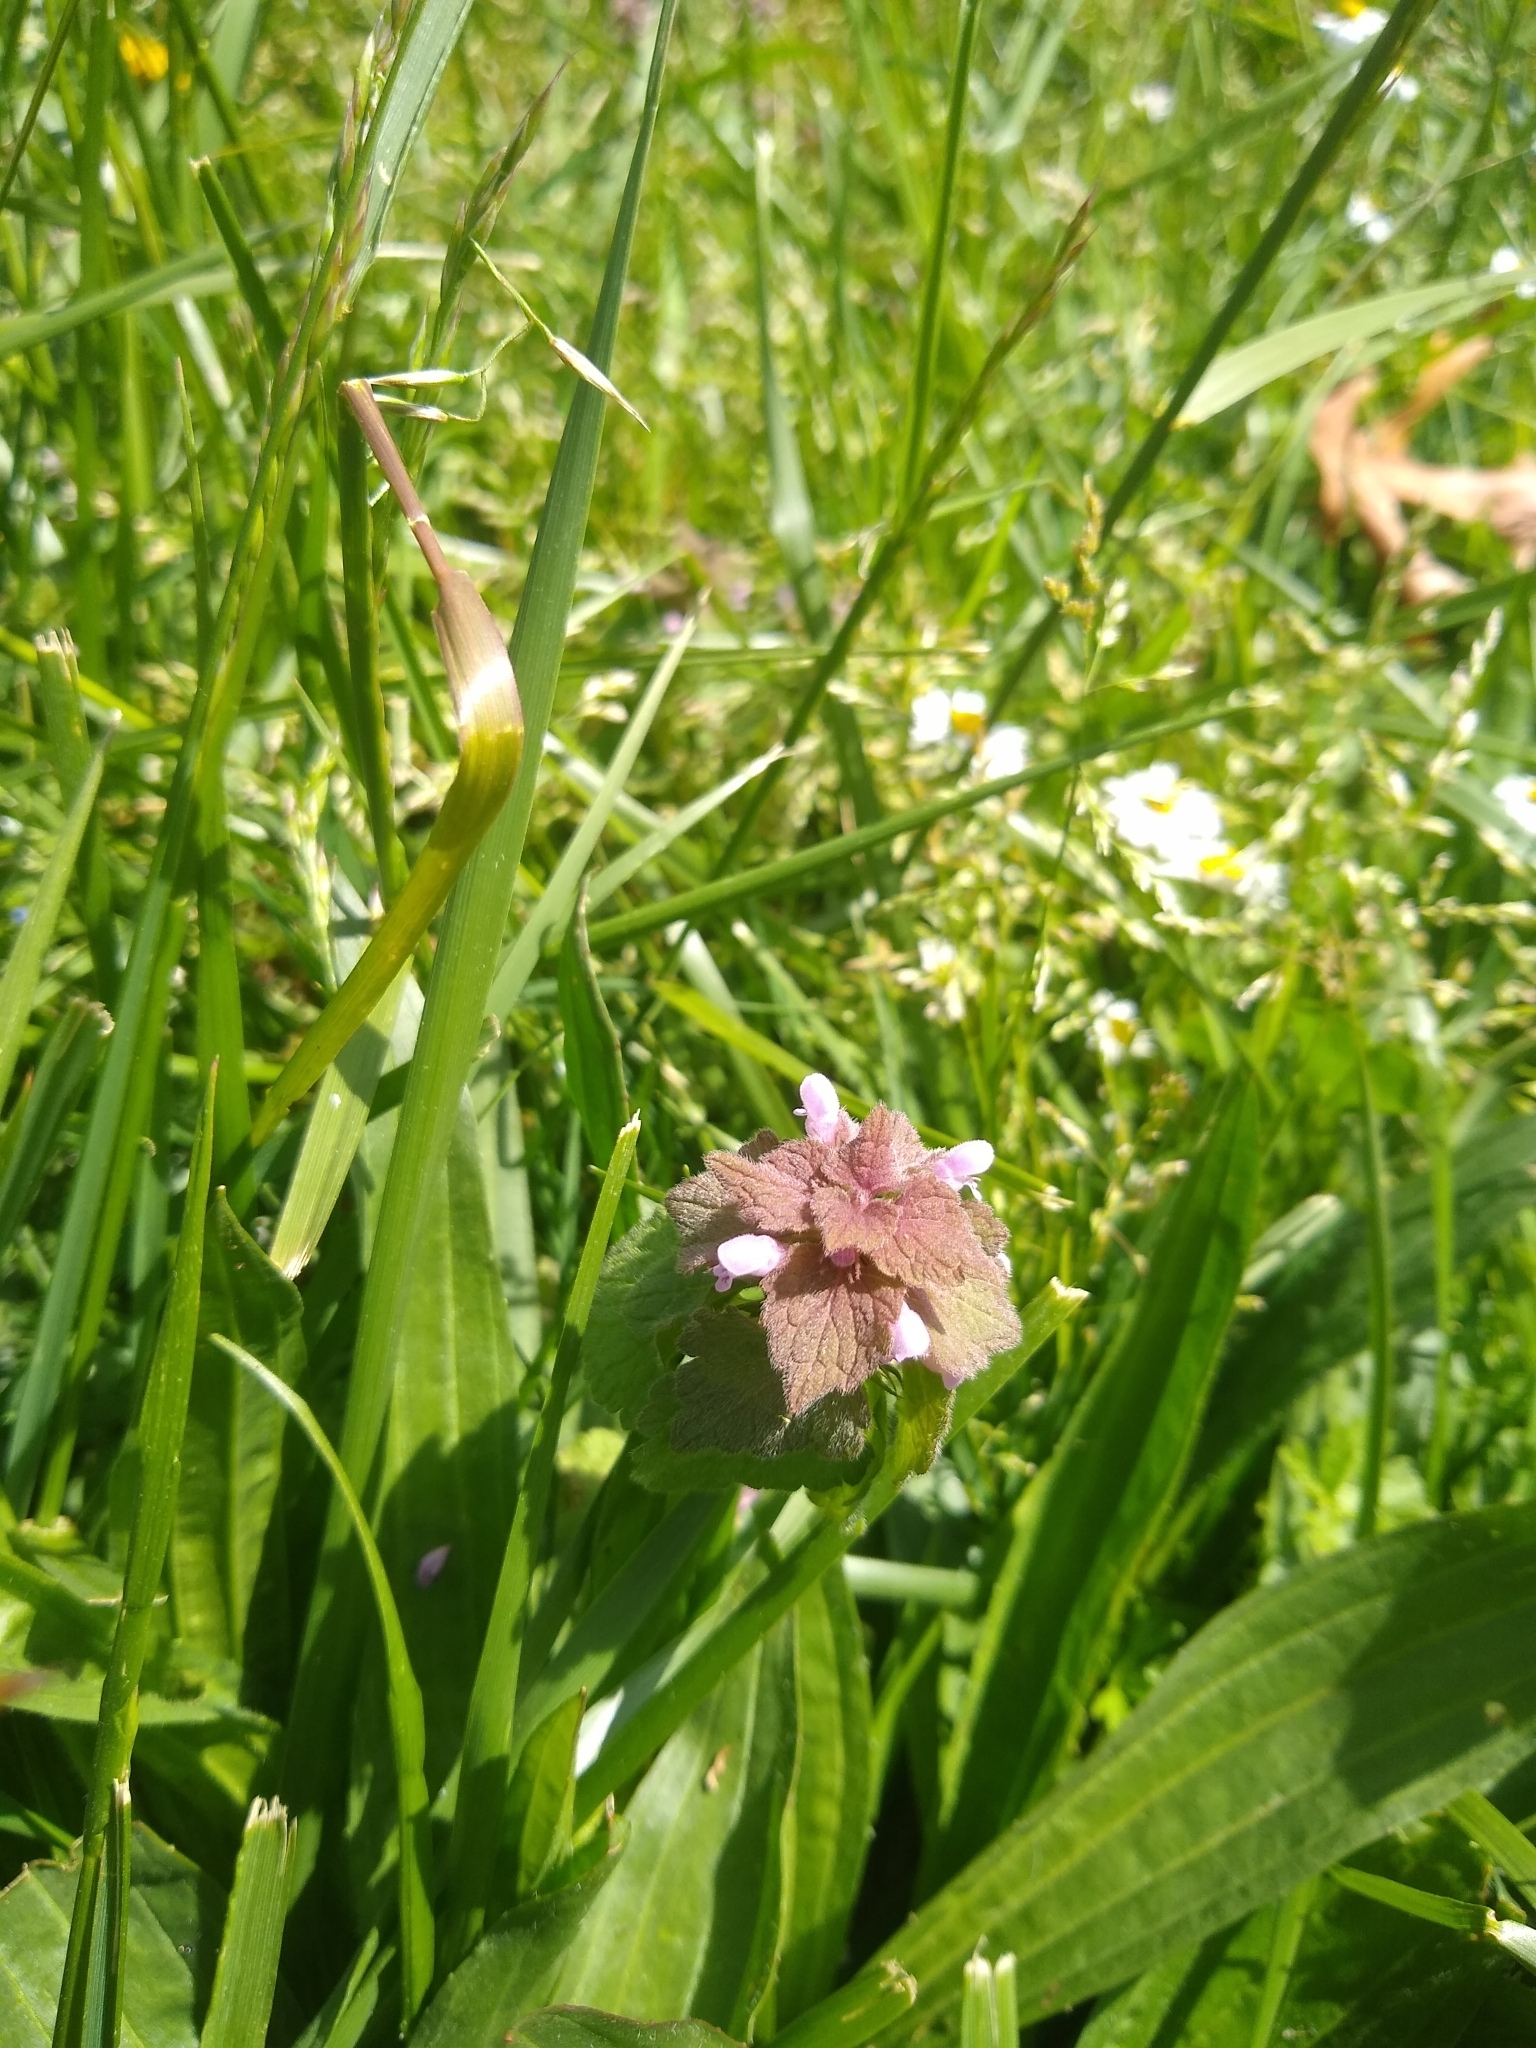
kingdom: Plantae
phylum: Tracheophyta
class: Magnoliopsida
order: Lamiales
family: Lamiaceae
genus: Lamium
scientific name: Lamium purpureum
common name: Red dead-nettle
